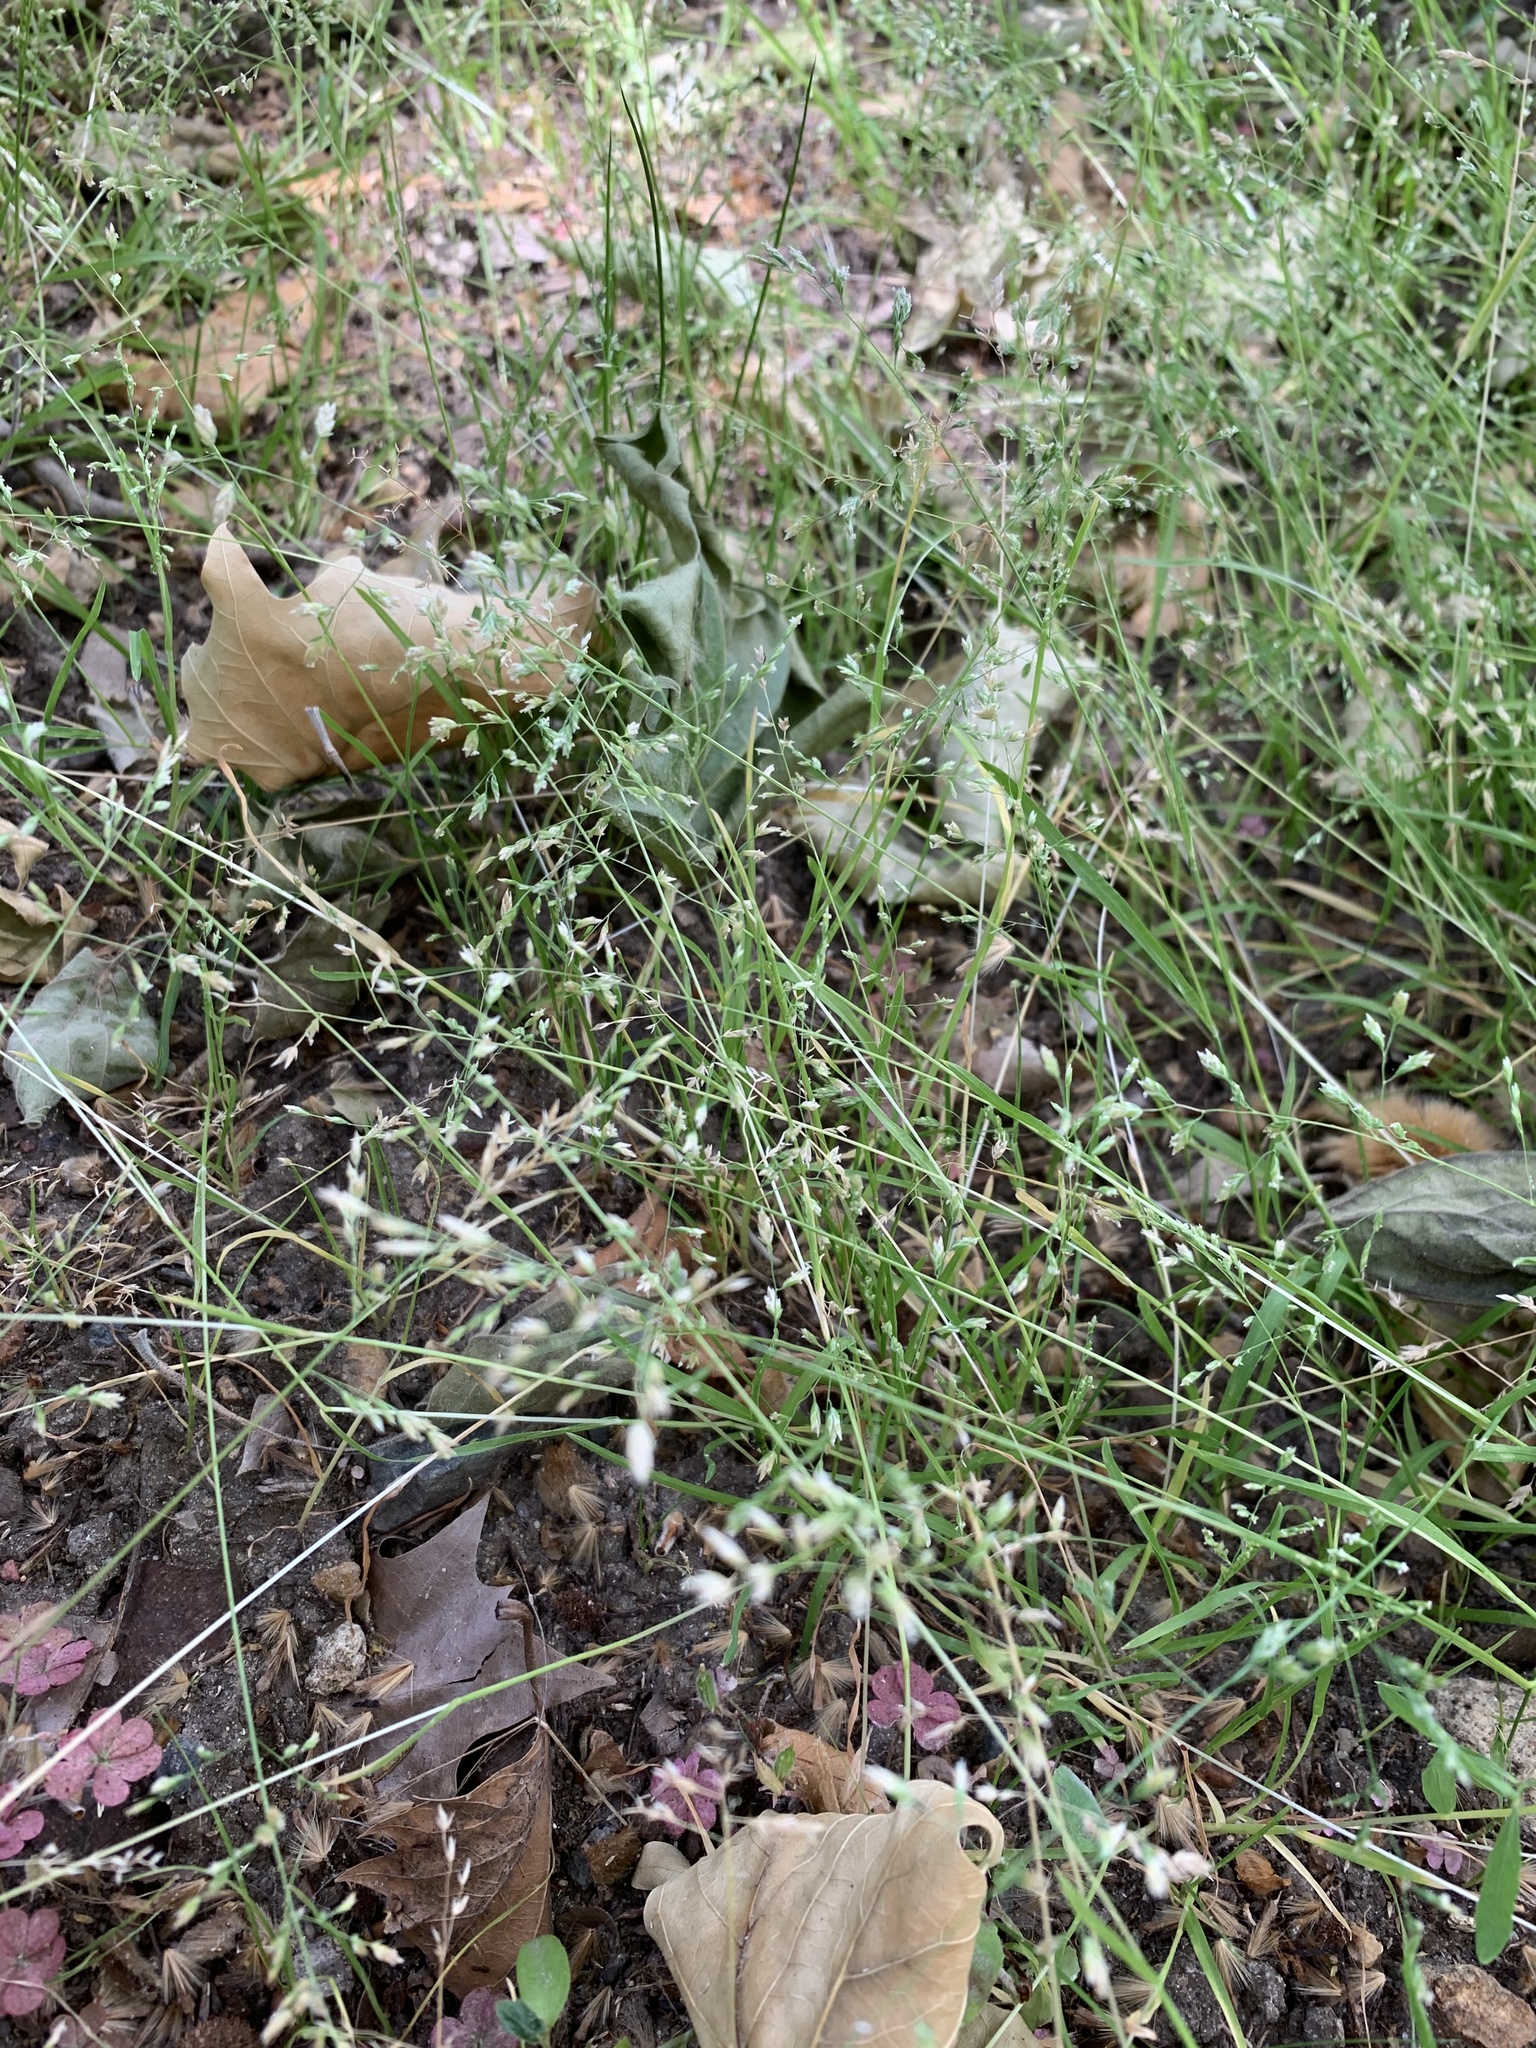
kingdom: Plantae
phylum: Tracheophyta
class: Liliopsida
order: Poales
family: Poaceae
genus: Poa
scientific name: Poa annua
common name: Annual bluegrass
